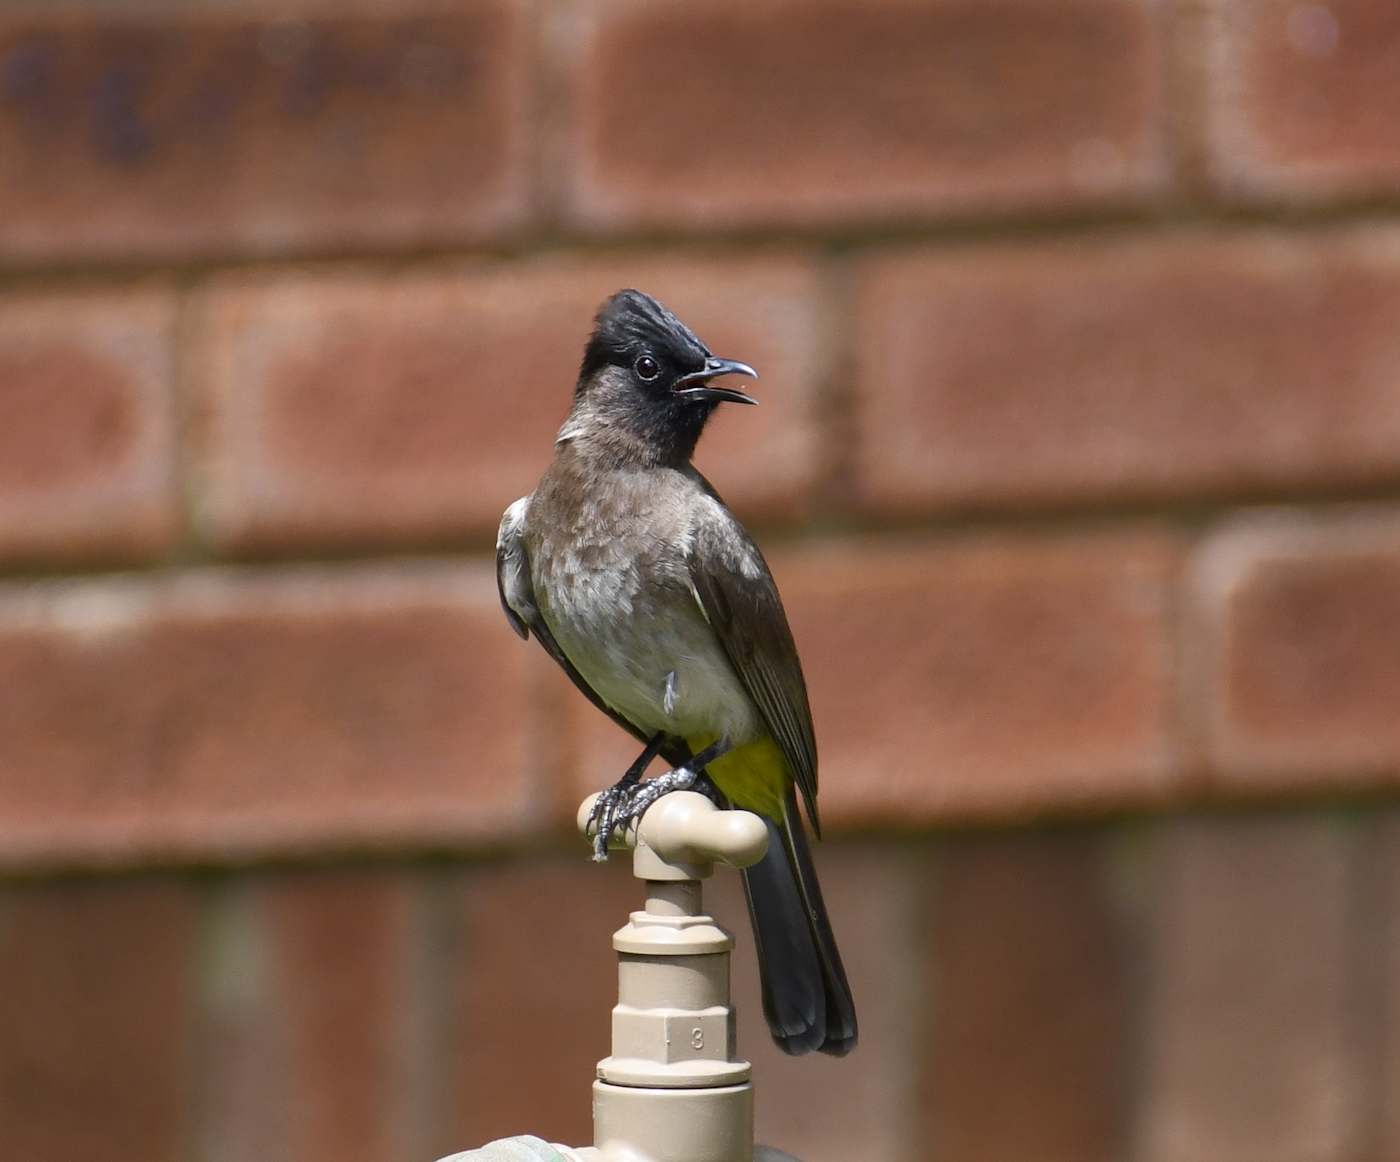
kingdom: Animalia
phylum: Chordata
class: Aves
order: Passeriformes
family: Pycnonotidae
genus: Pycnonotus
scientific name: Pycnonotus barbatus
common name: Common bulbul
